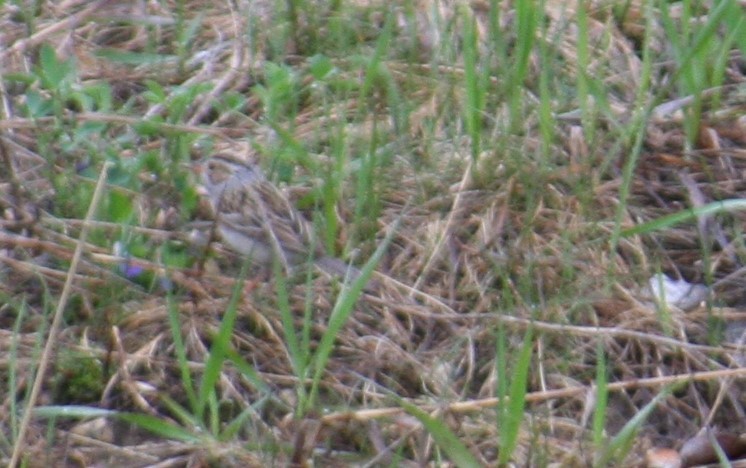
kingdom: Animalia
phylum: Chordata
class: Aves
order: Passeriformes
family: Passerellidae
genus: Spizella
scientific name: Spizella pallida
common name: Clay-colored sparrow
